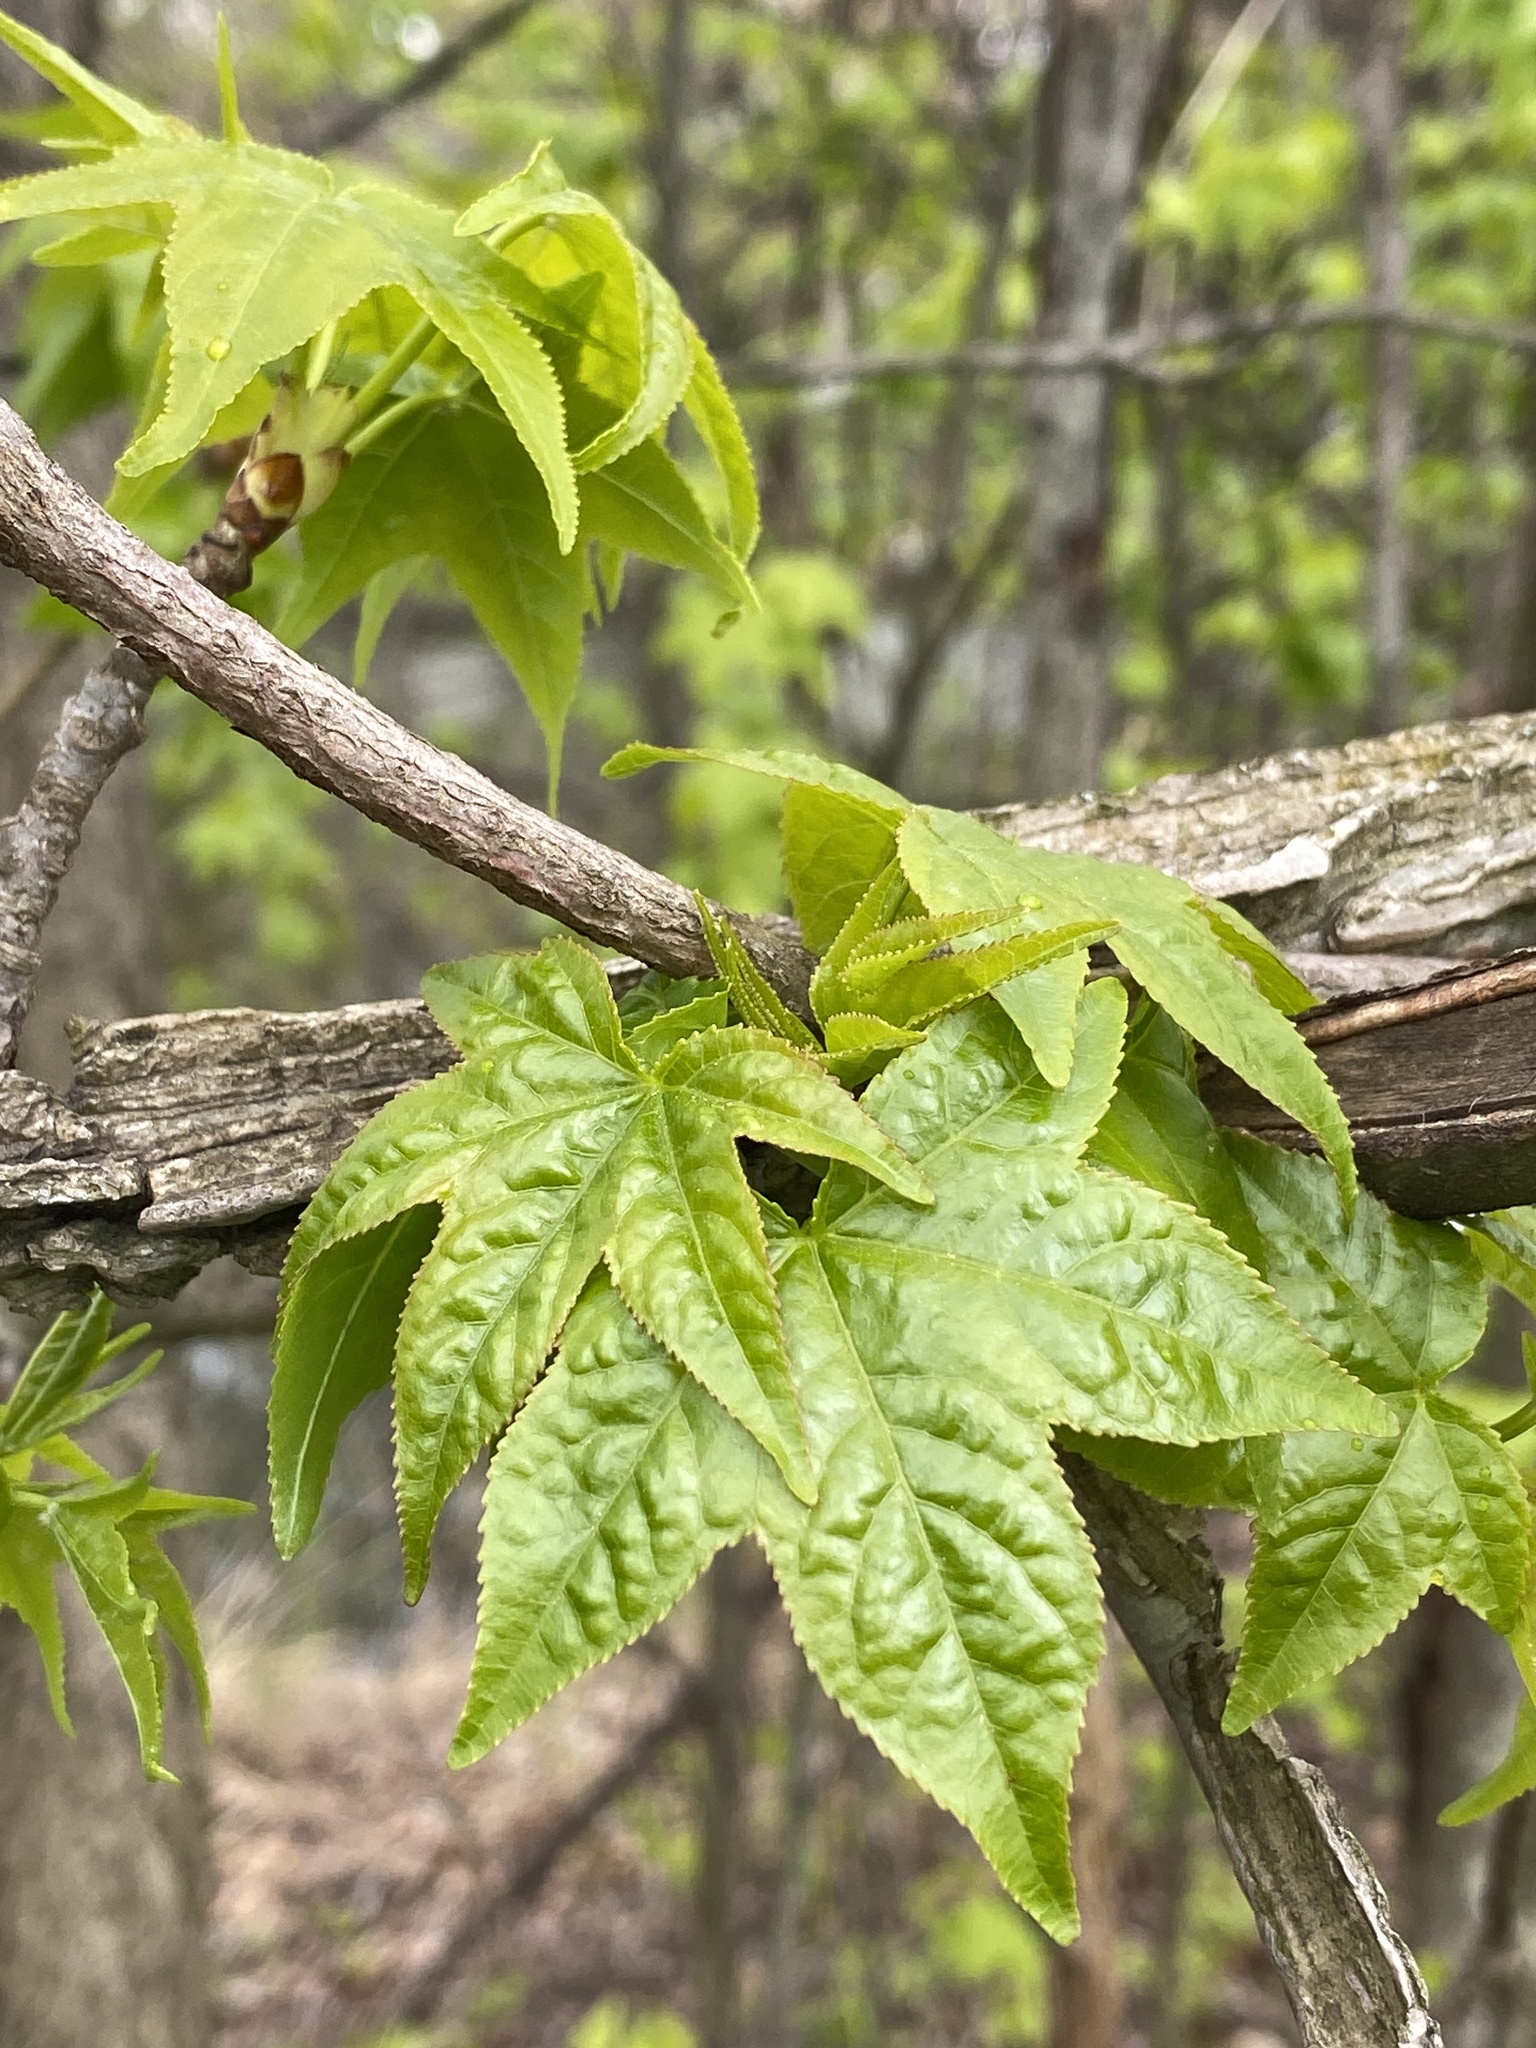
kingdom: Plantae
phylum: Tracheophyta
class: Magnoliopsida
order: Saxifragales
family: Altingiaceae
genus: Liquidambar
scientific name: Liquidambar styraciflua
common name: Sweet gum
